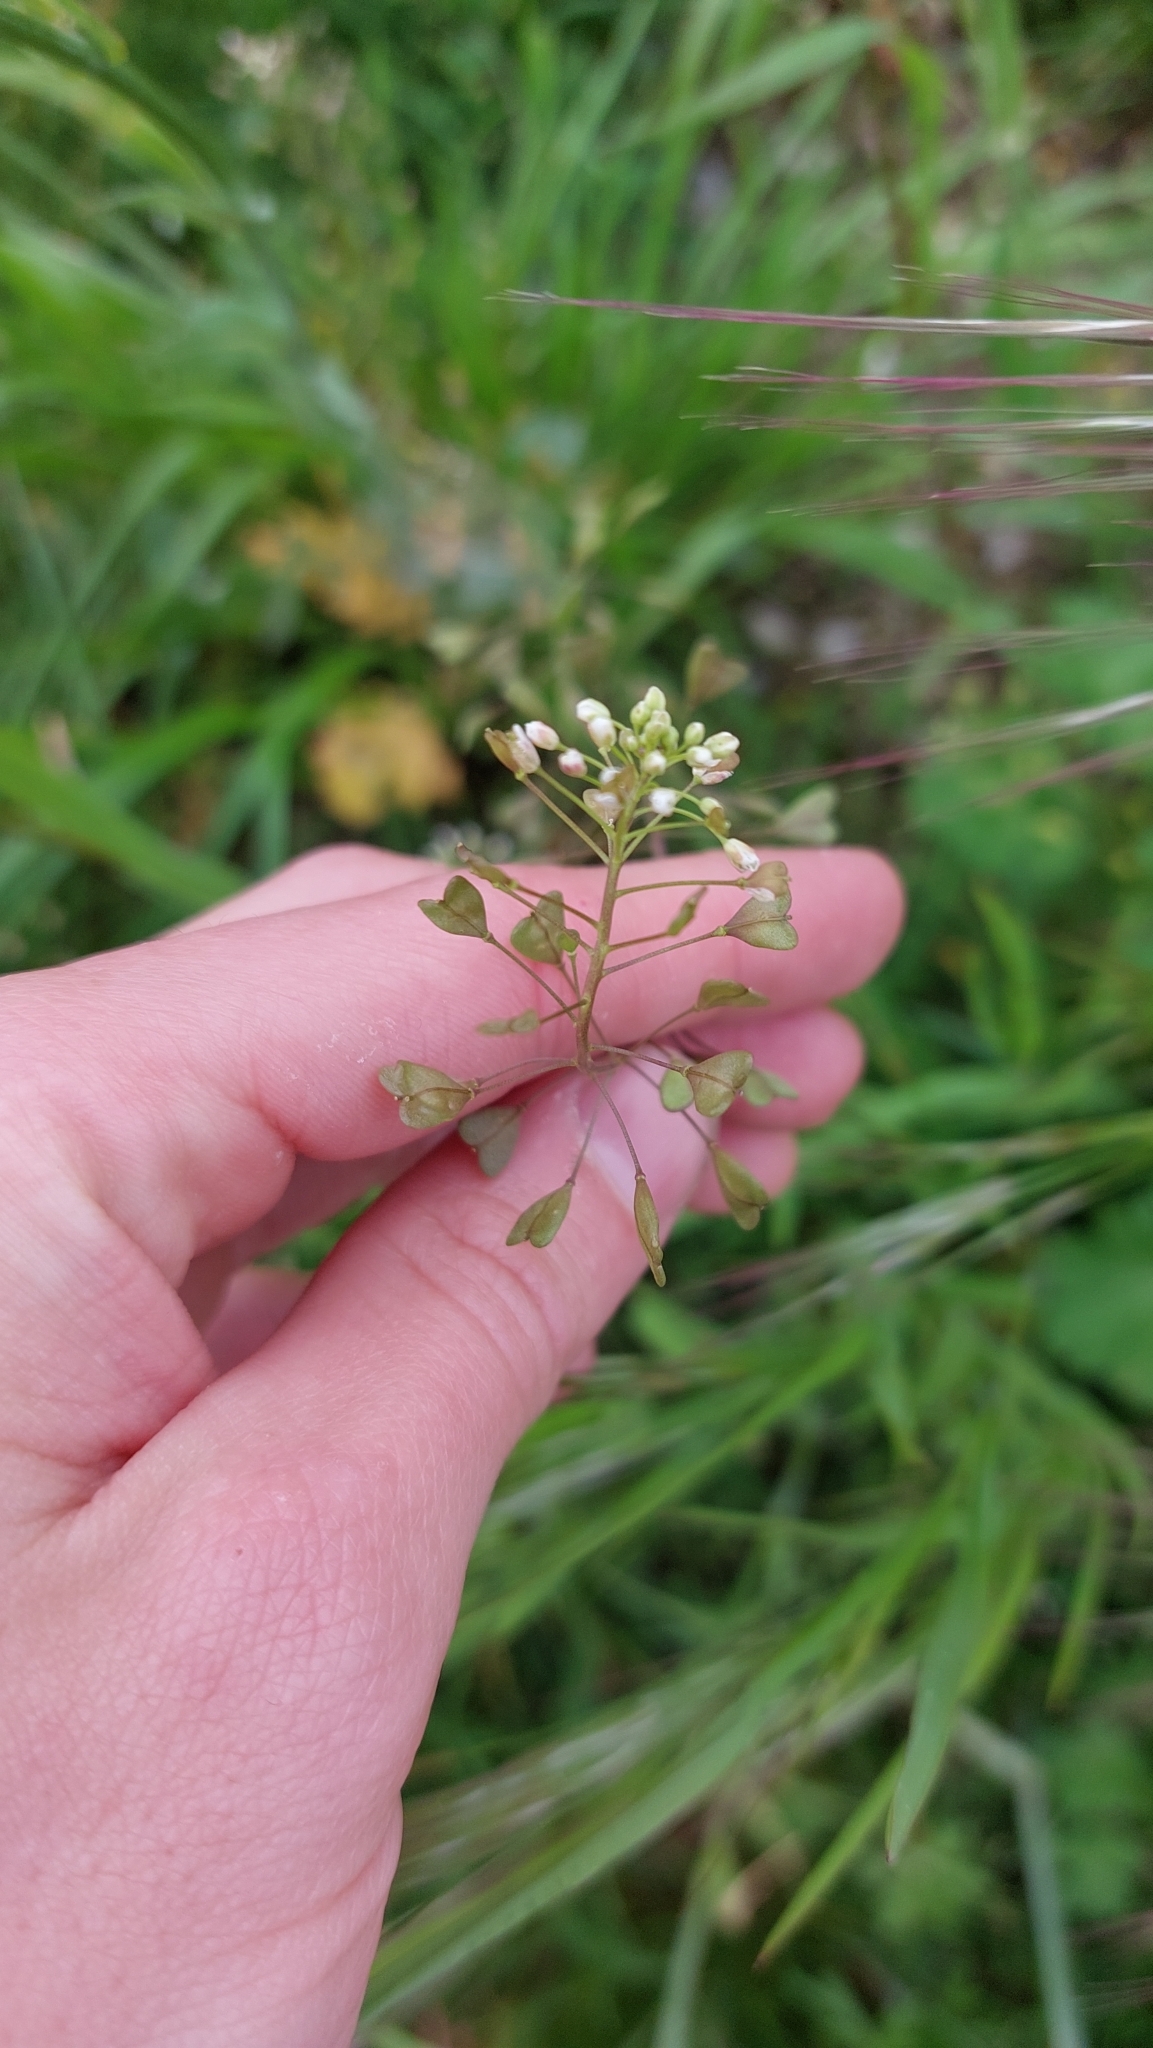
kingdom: Plantae
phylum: Tracheophyta
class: Magnoliopsida
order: Brassicales
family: Brassicaceae
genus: Capsella
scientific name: Capsella bursa-pastoris
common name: Shepherd's purse
